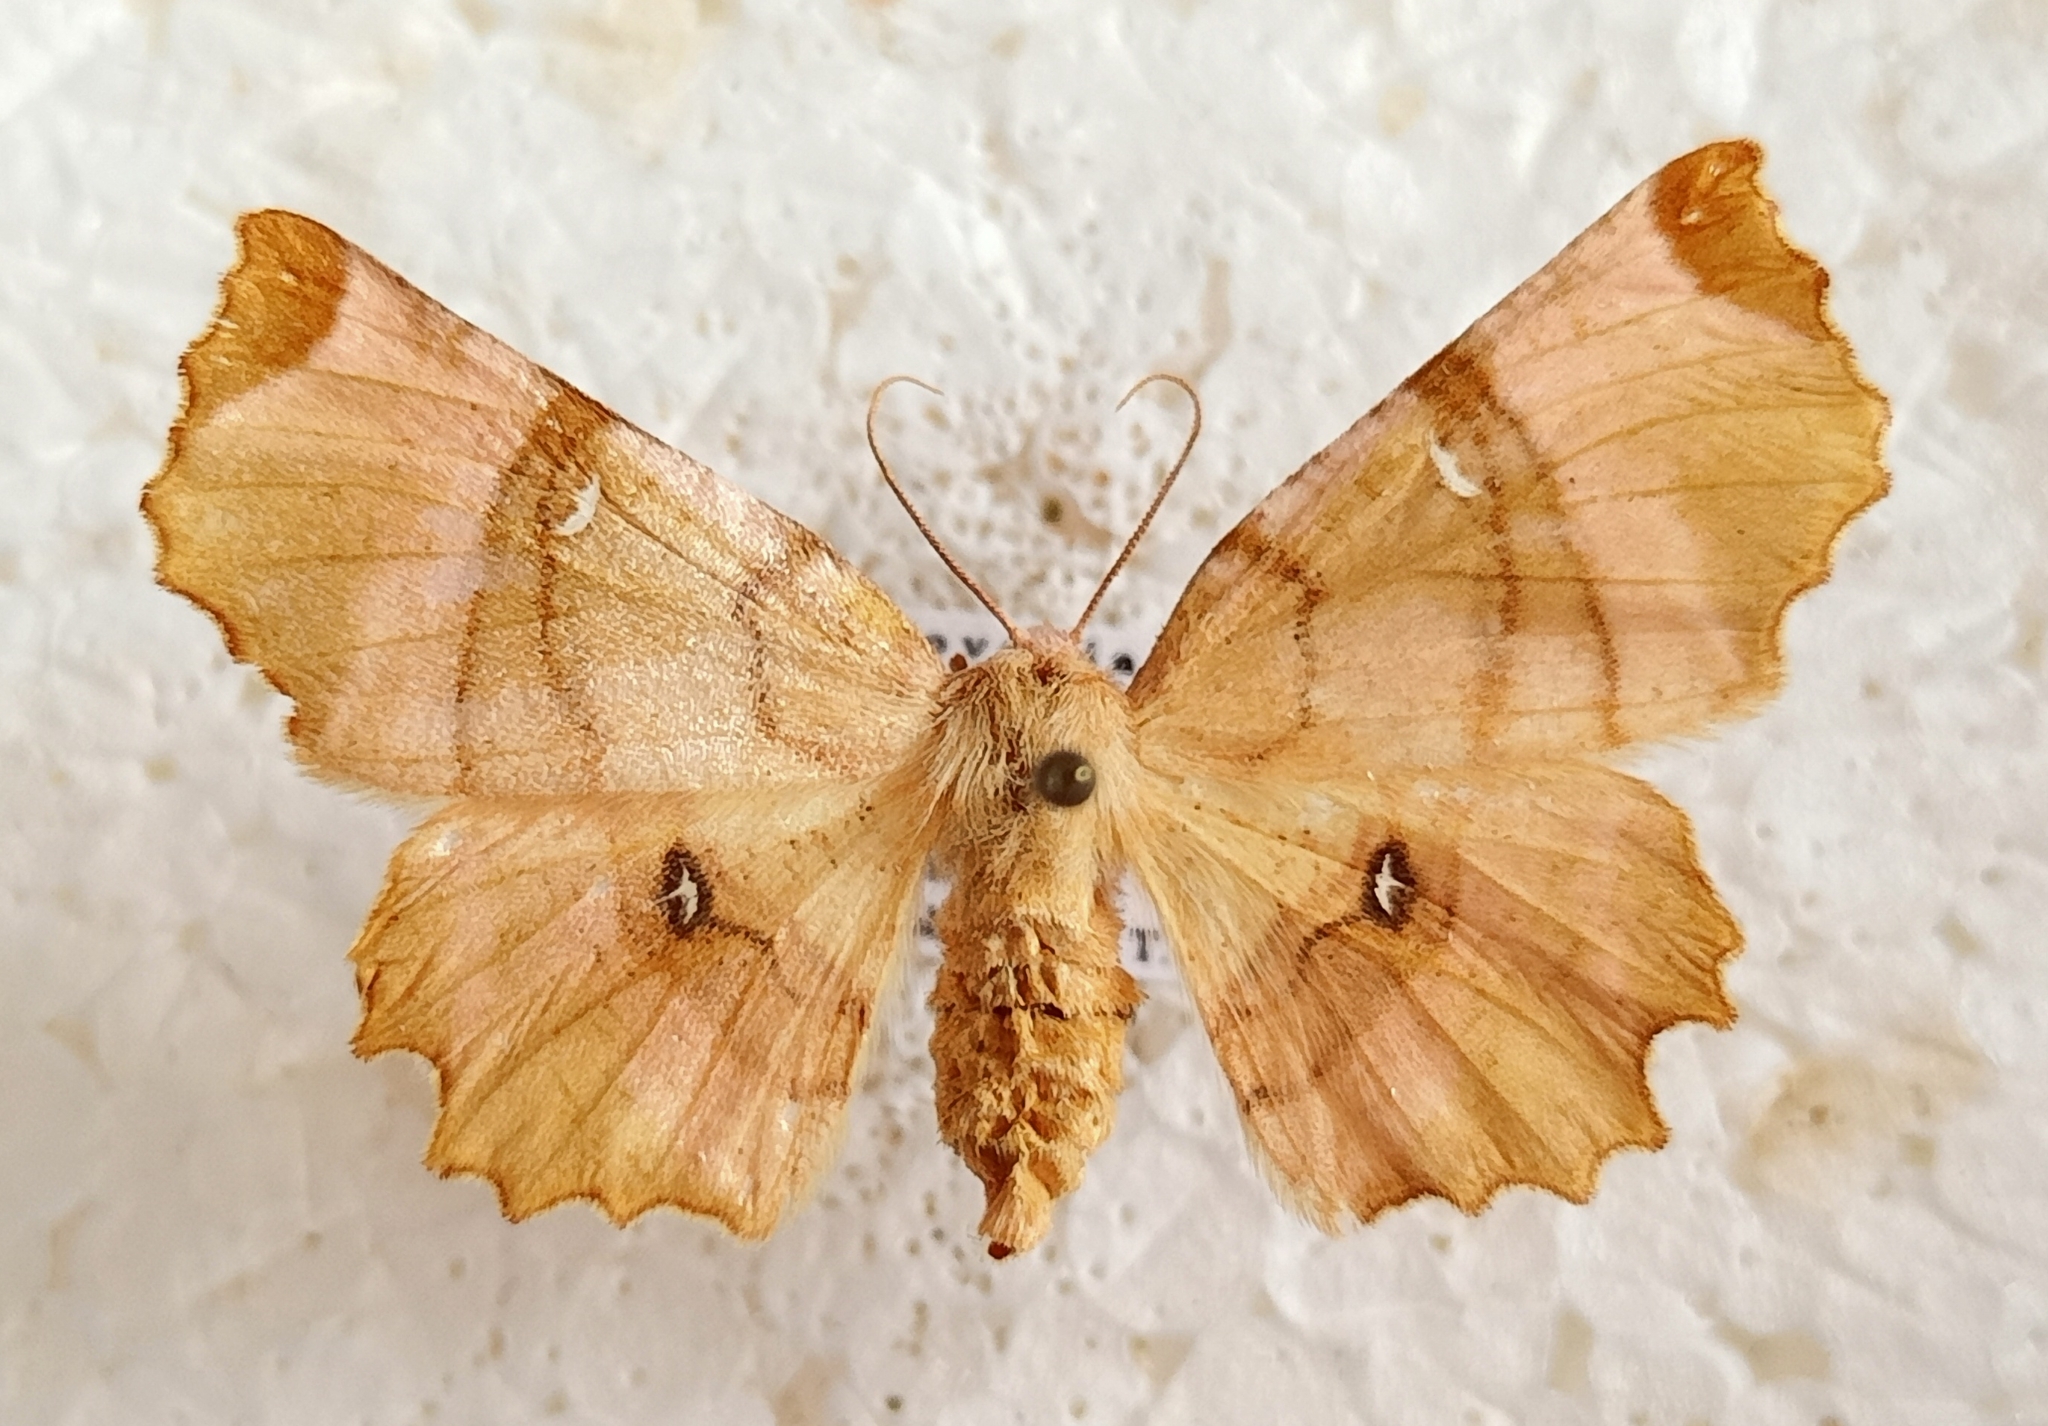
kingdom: Animalia
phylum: Arthropoda
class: Insecta
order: Lepidoptera
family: Geometridae
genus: Selenia
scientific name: Selenia lunularia
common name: Lunar thorn
